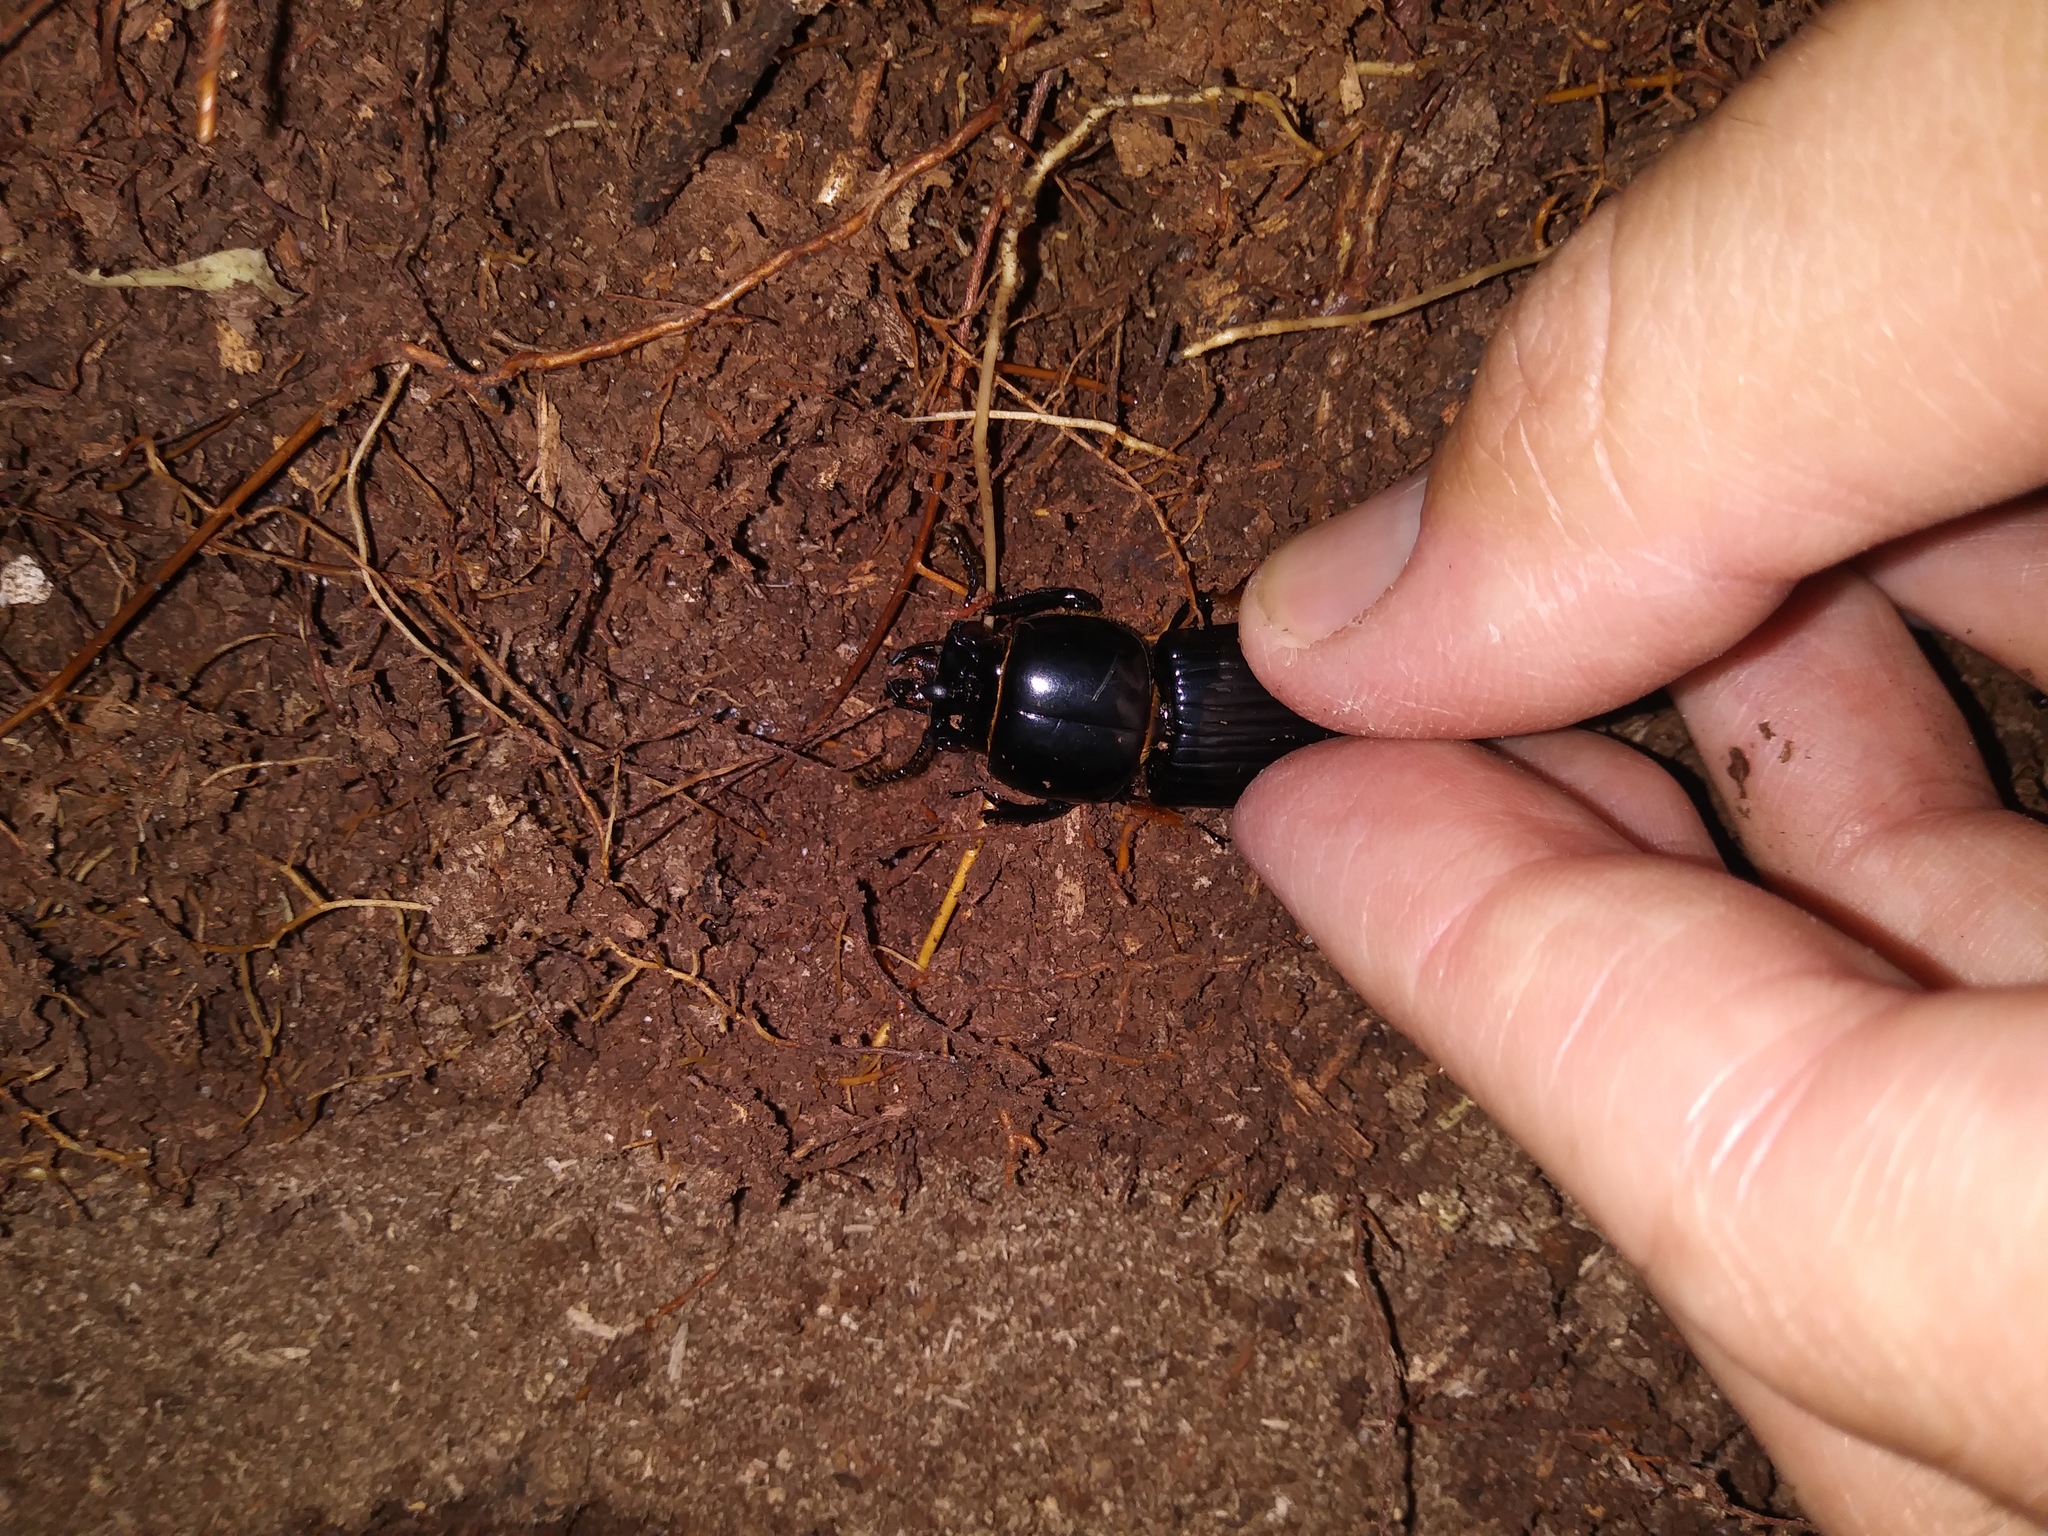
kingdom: Animalia
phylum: Arthropoda
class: Insecta
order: Coleoptera
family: Passalidae
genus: Odontotaenius
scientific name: Odontotaenius disjunctus
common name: Patent leather beetle
